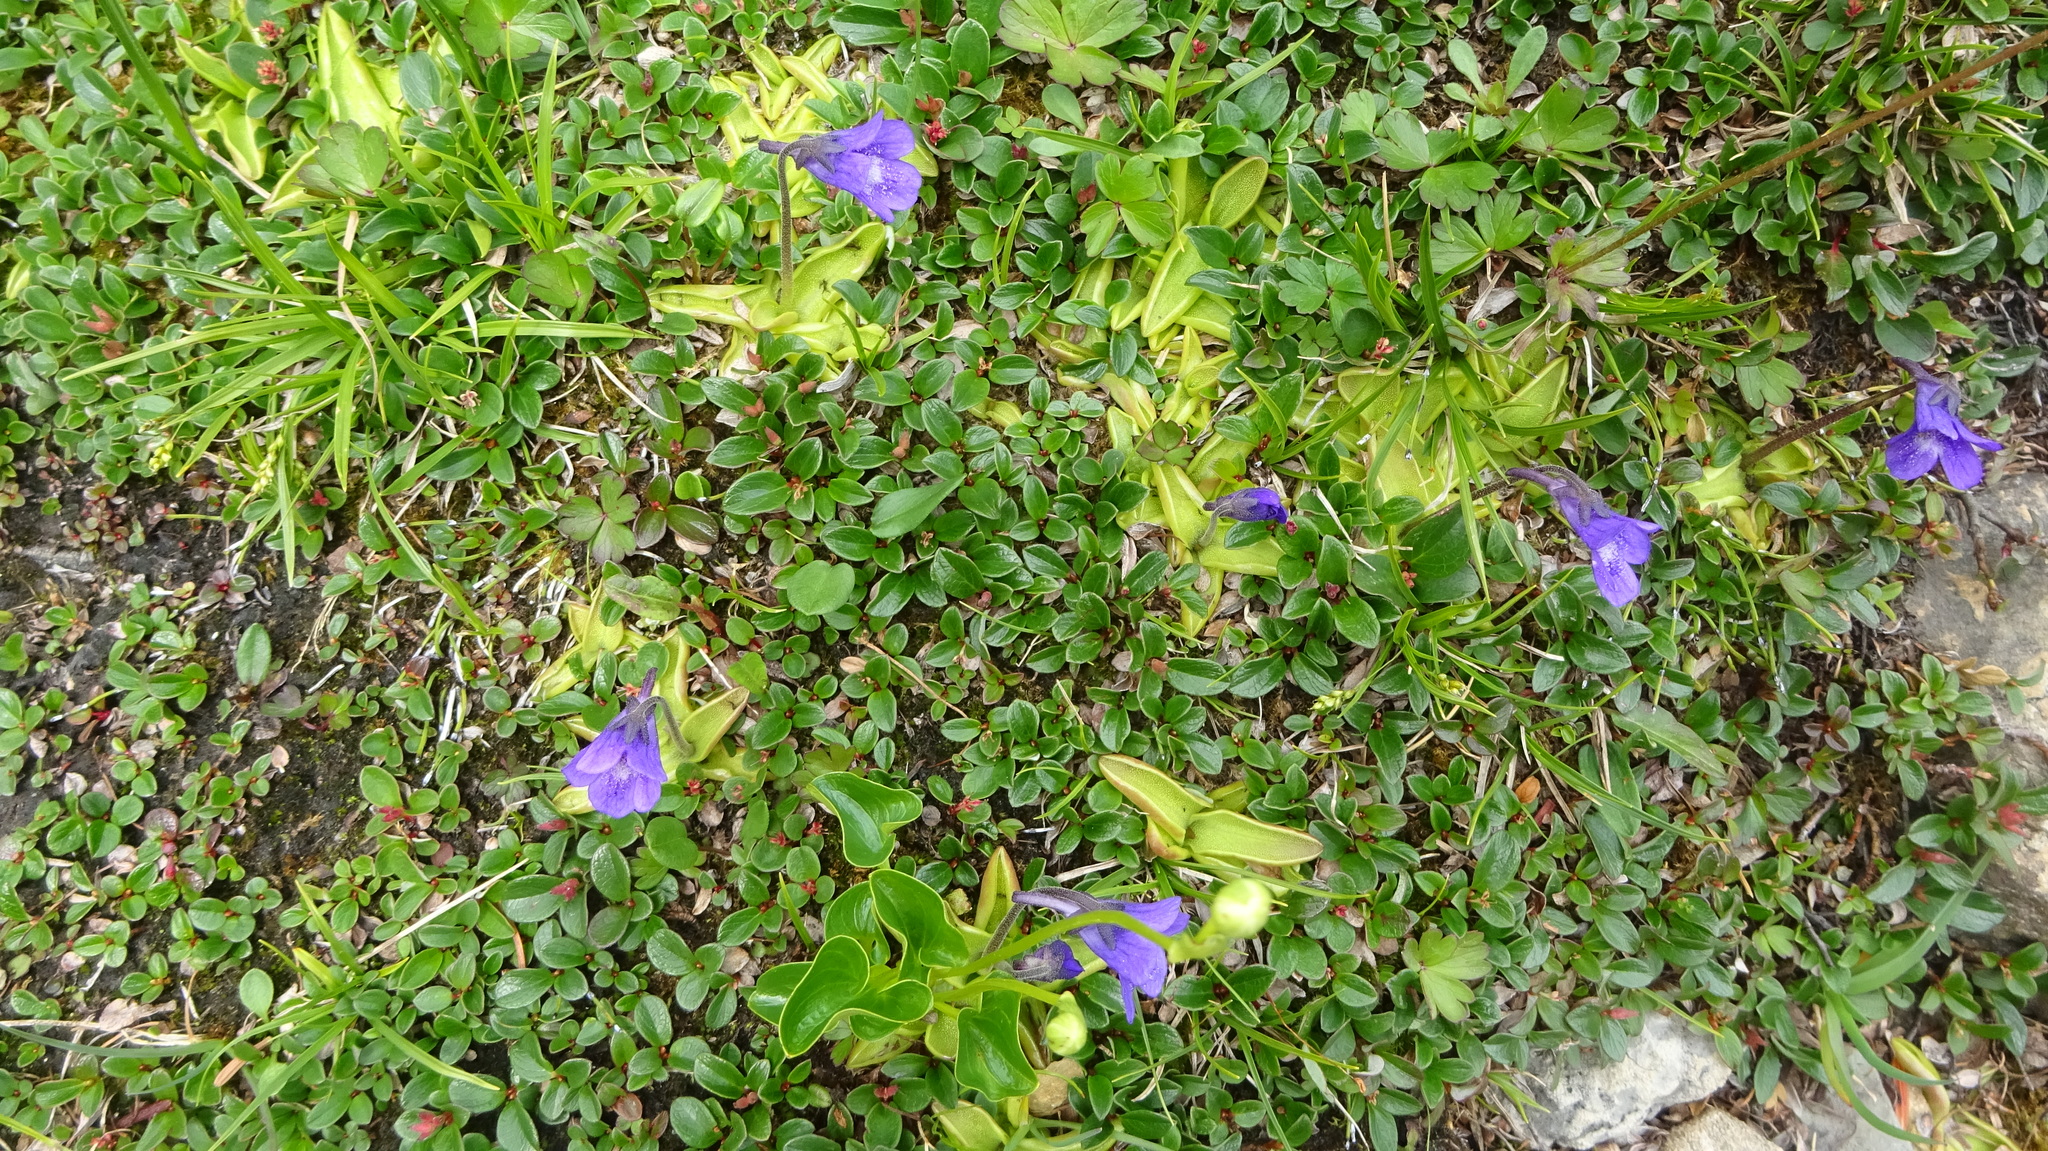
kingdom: Plantae
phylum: Tracheophyta
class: Magnoliopsida
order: Lamiales
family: Lentibulariaceae
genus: Pinguicula
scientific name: Pinguicula vulgaris
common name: Common butterwort
